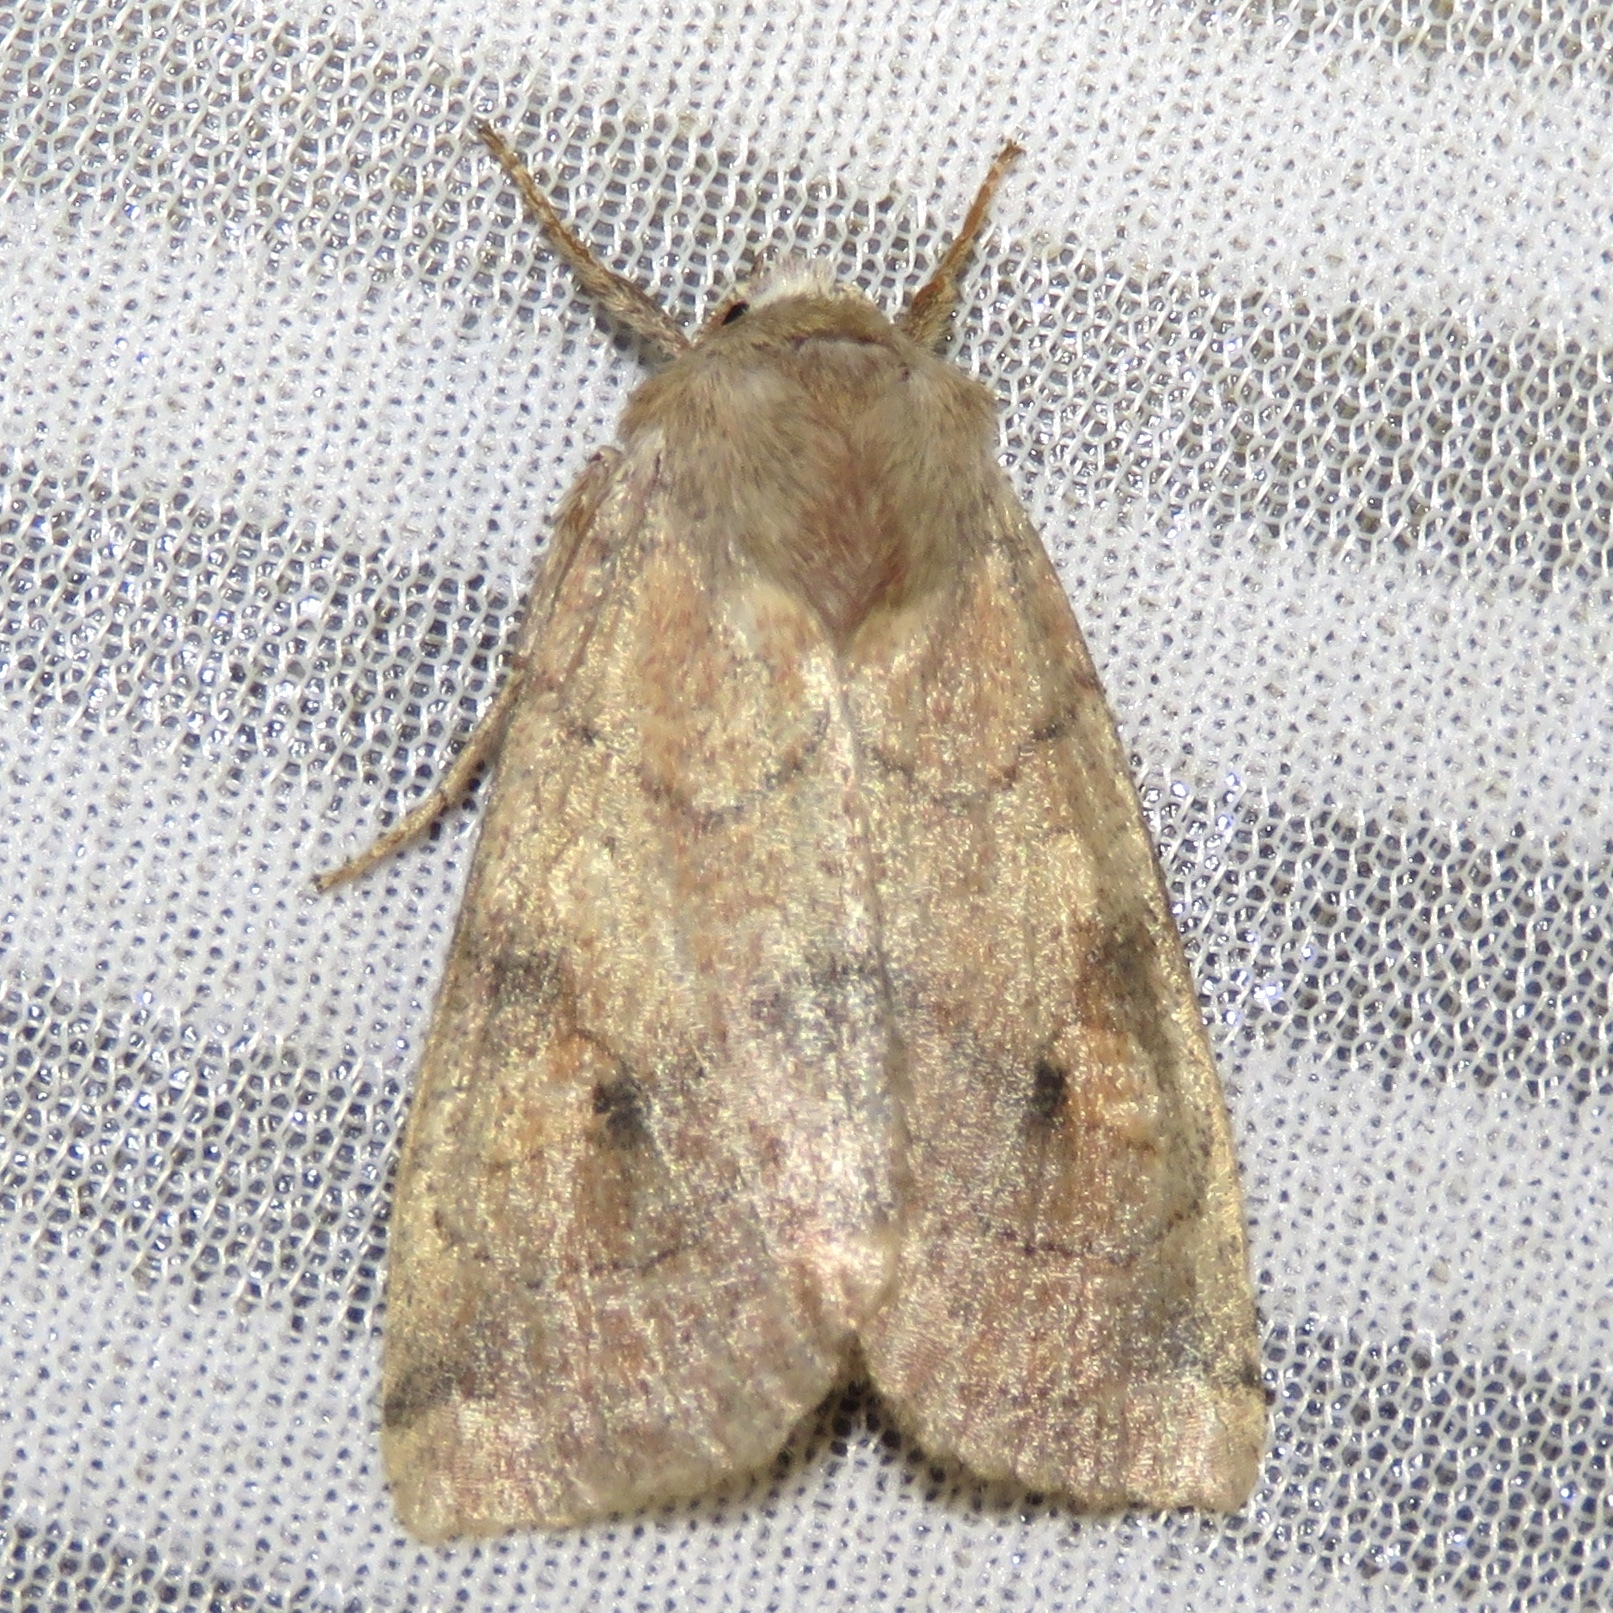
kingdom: Animalia
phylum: Arthropoda
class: Insecta
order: Lepidoptera
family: Noctuidae
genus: Enargia
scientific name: Enargia infumata
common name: Smoked sallow
